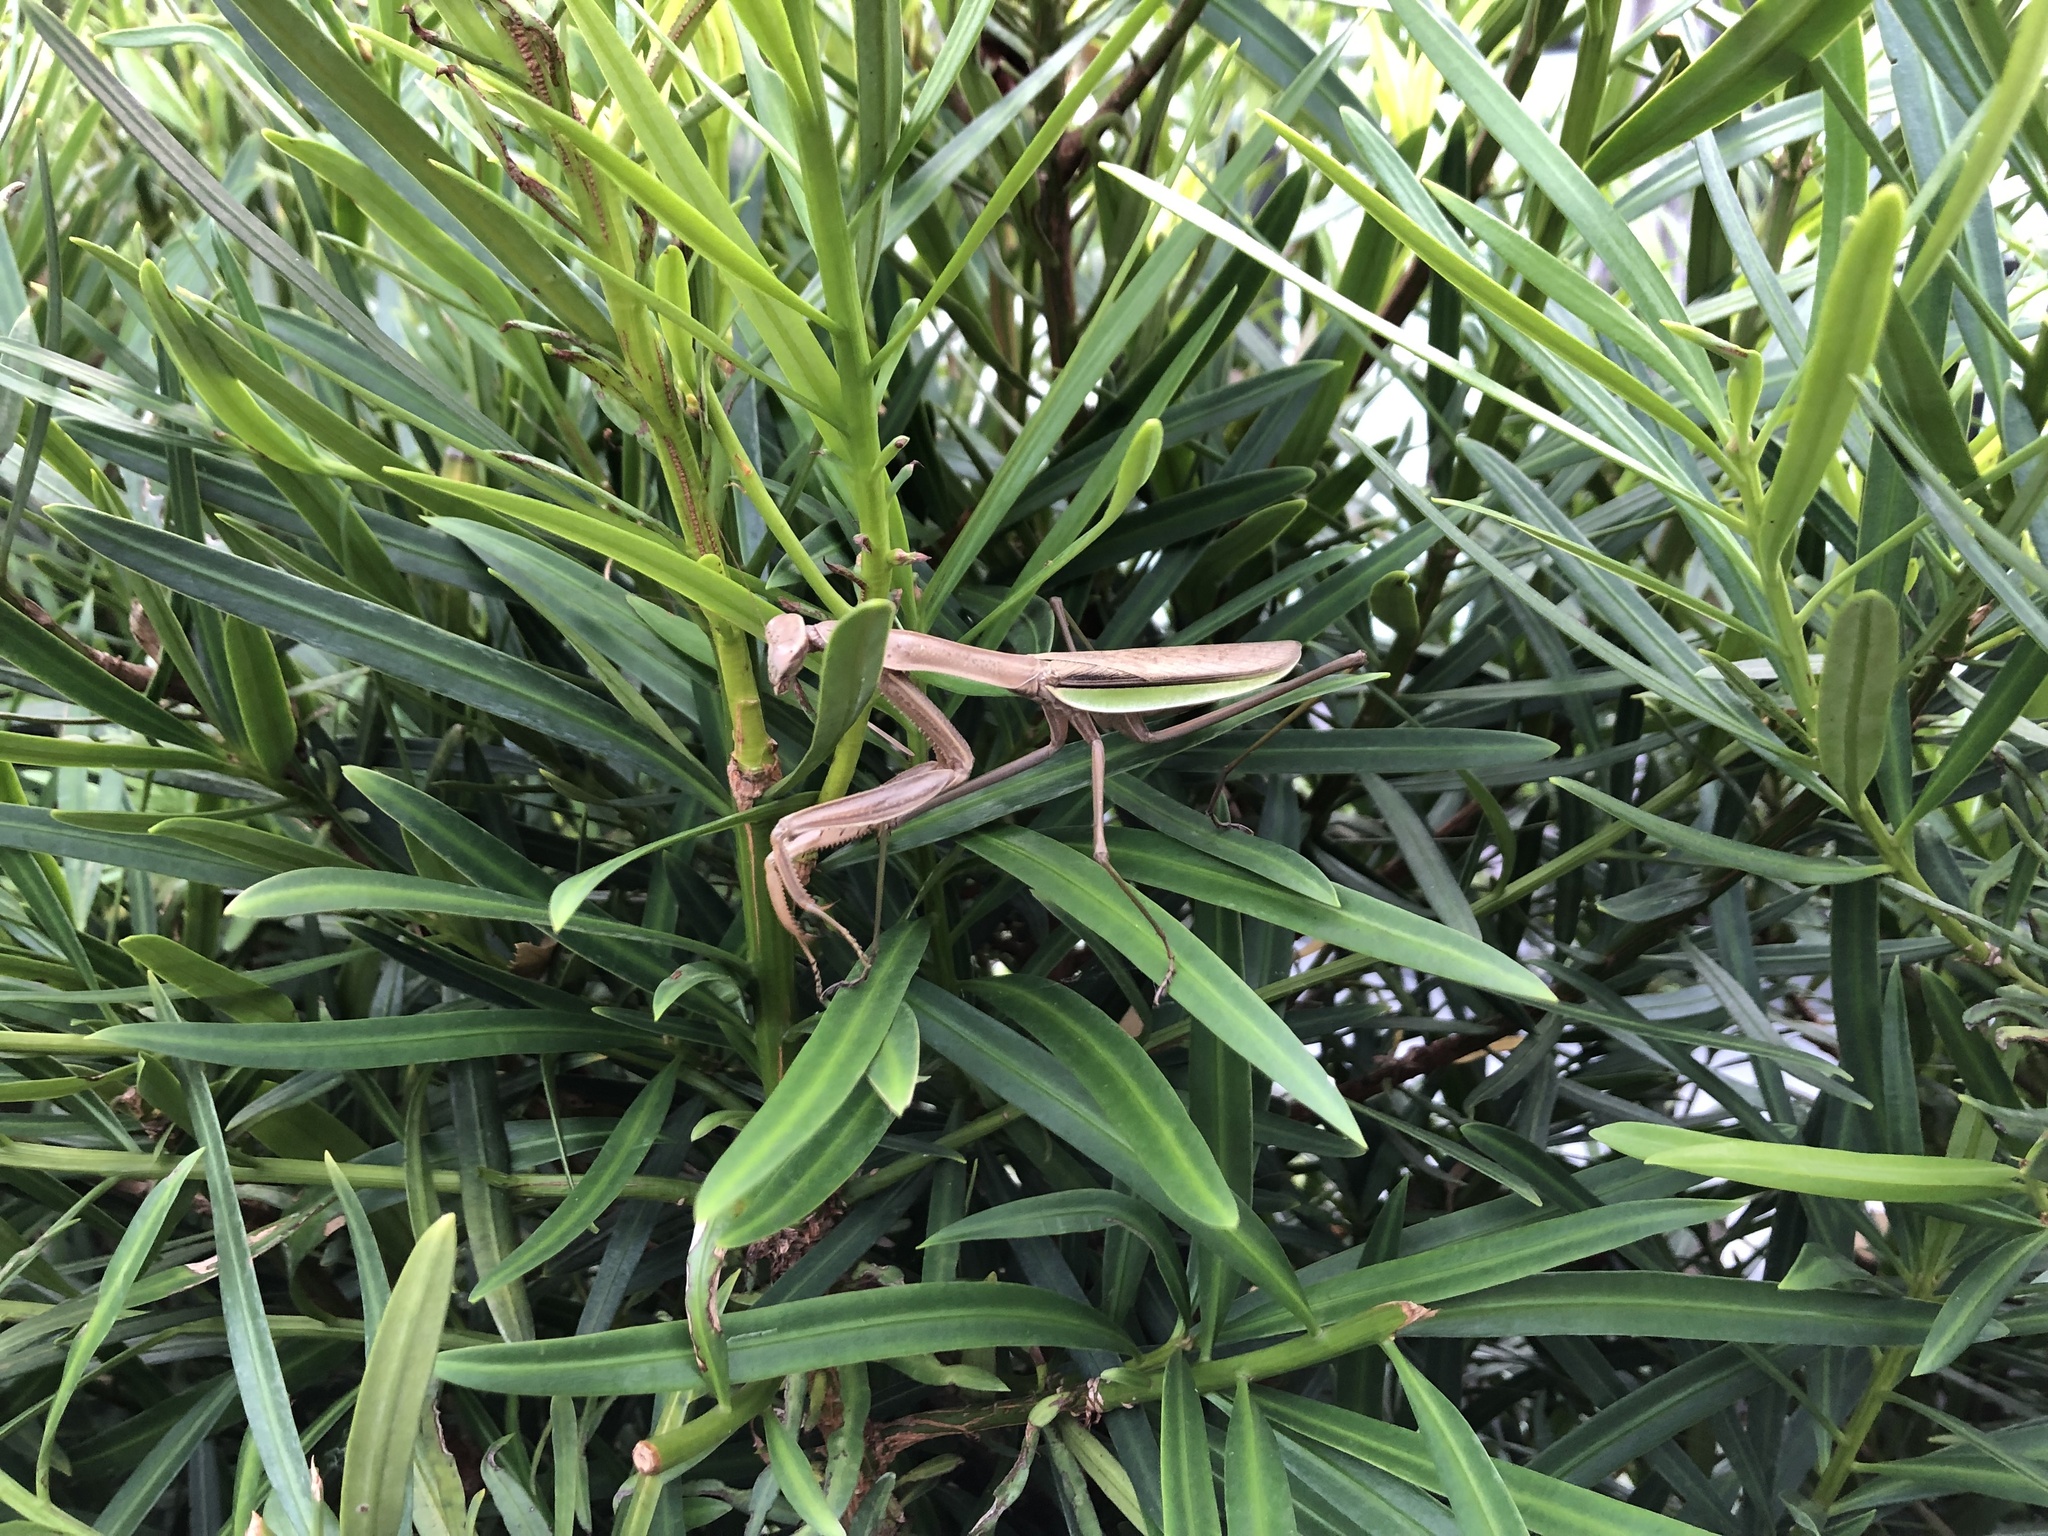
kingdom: Animalia
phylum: Arthropoda
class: Insecta
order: Mantodea
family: Mantidae
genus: Tenodera
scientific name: Tenodera sinensis
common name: Chinese mantis
